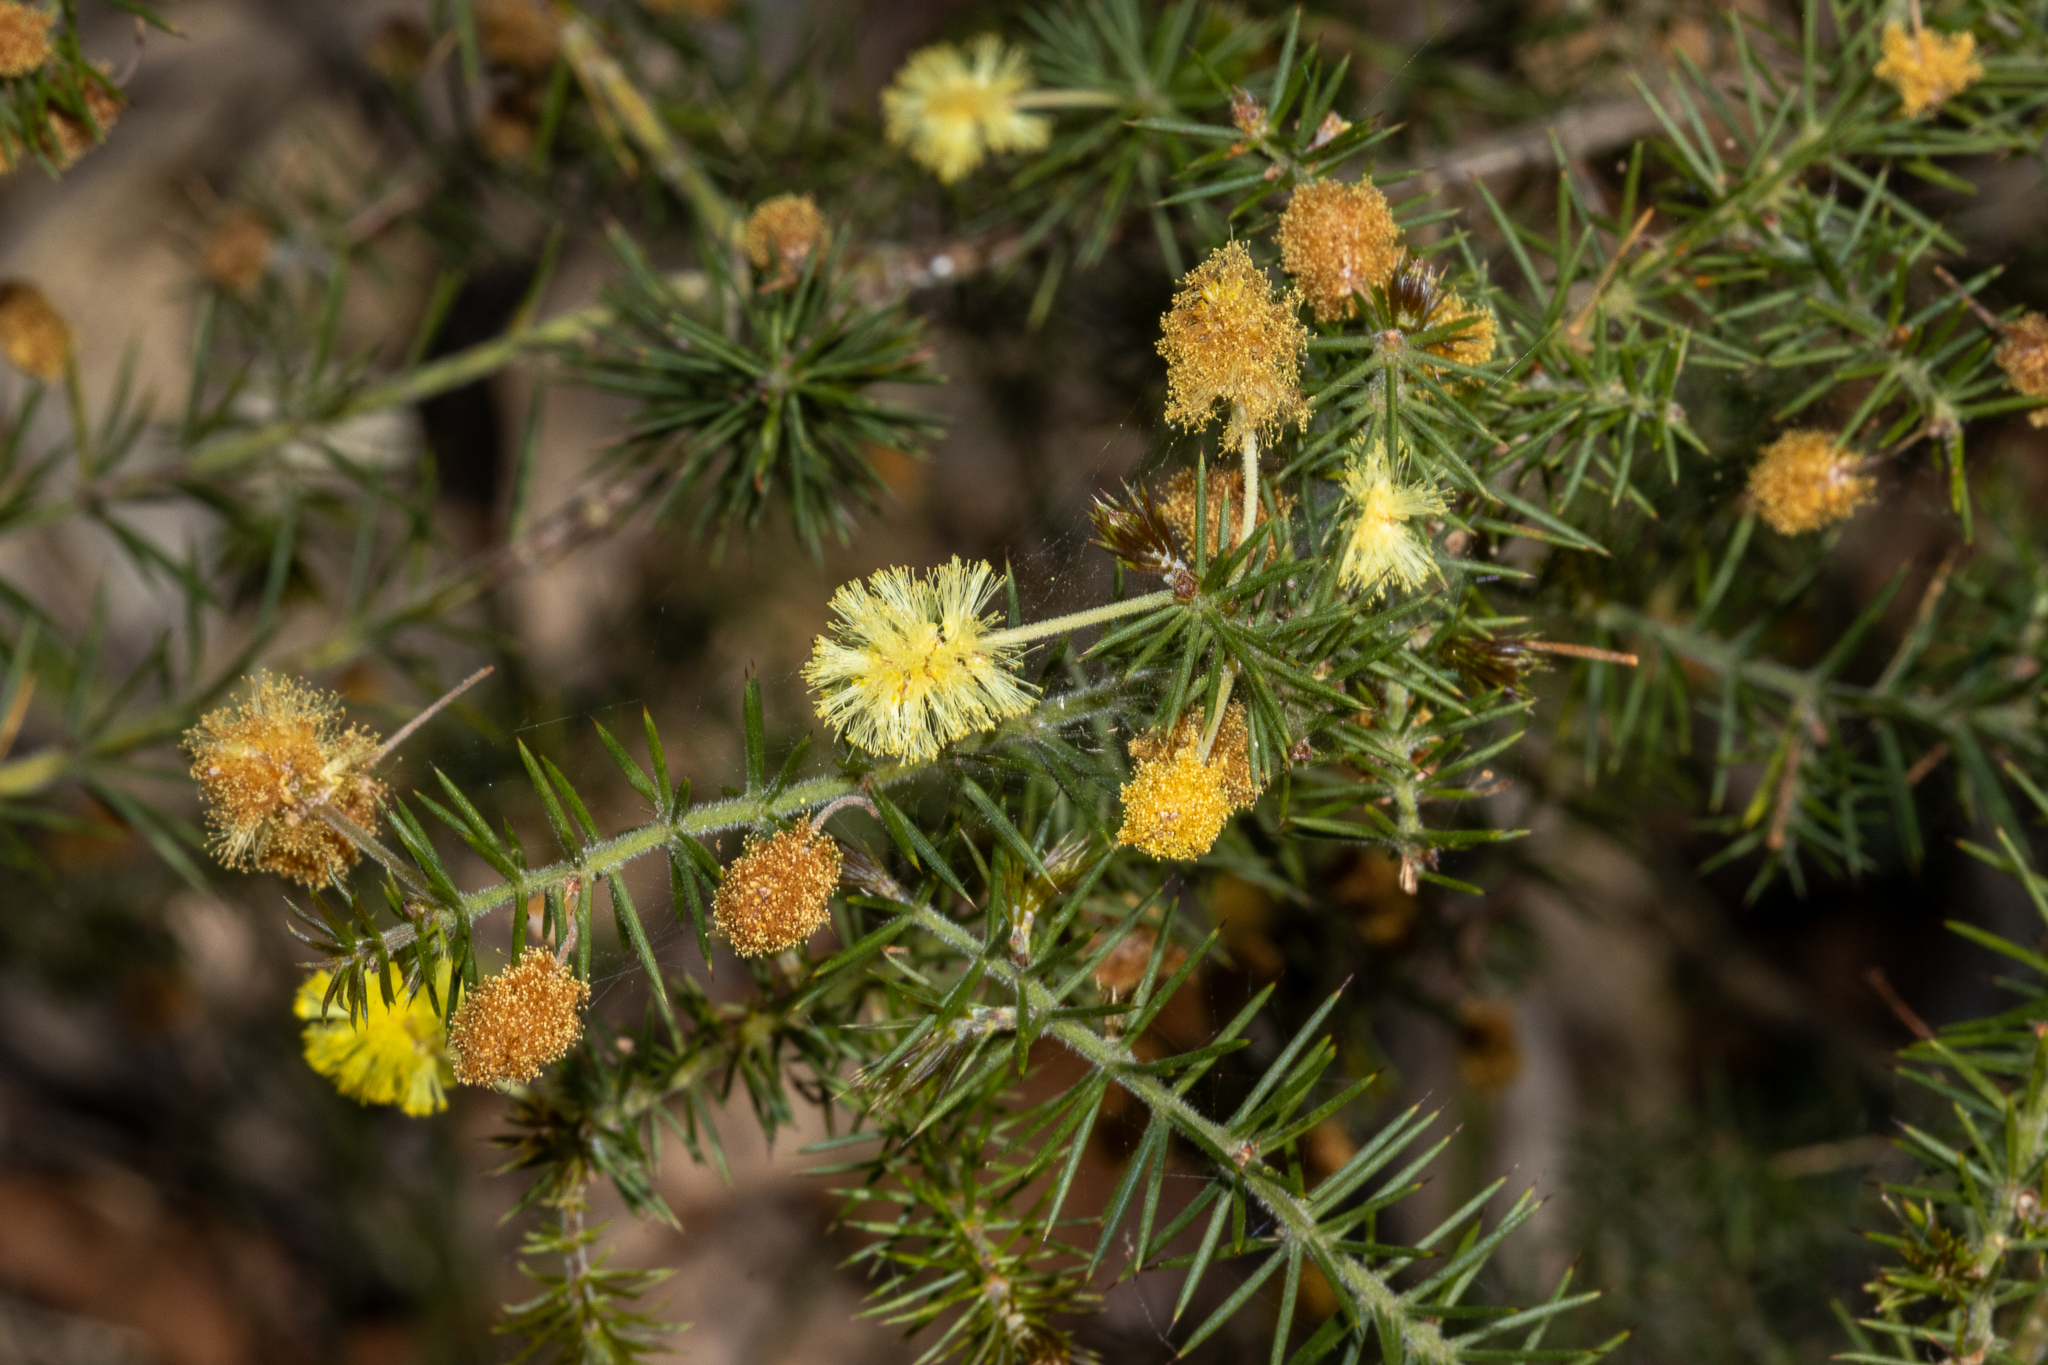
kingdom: Plantae
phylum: Tracheophyta
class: Magnoliopsida
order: Fabales
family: Fabaceae
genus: Acacia
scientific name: Acacia verticillata
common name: Prickly moses
